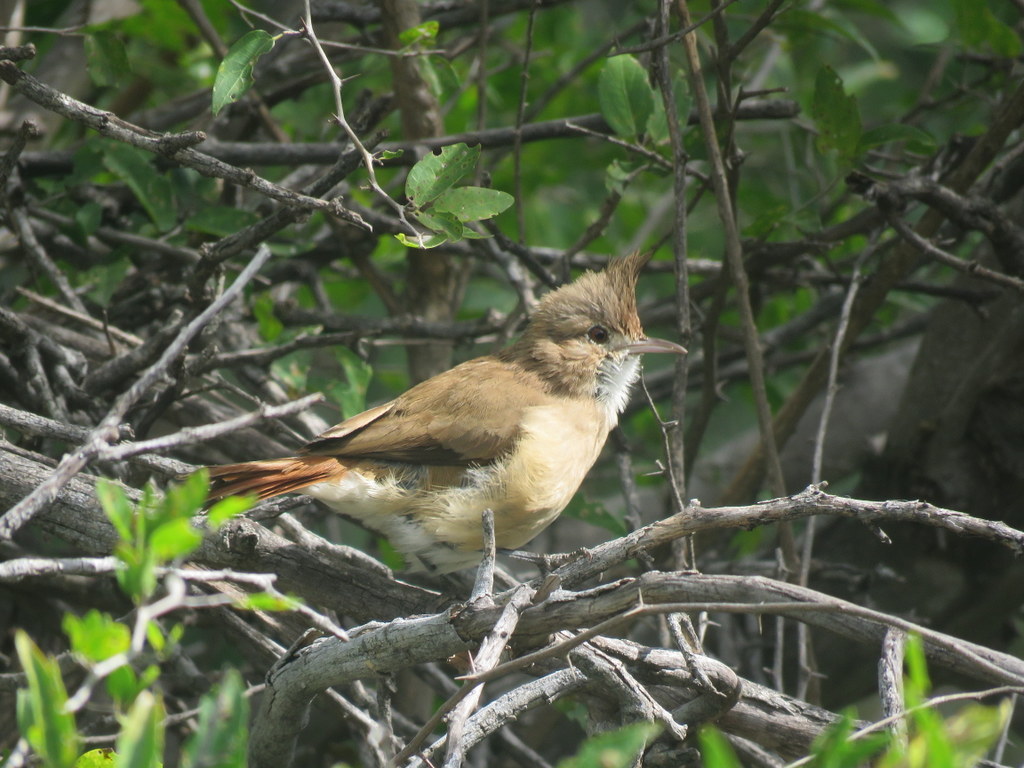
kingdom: Animalia
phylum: Chordata
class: Aves
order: Passeriformes
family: Furnariidae
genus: Furnarius
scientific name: Furnarius cristatus
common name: Crested hornero
